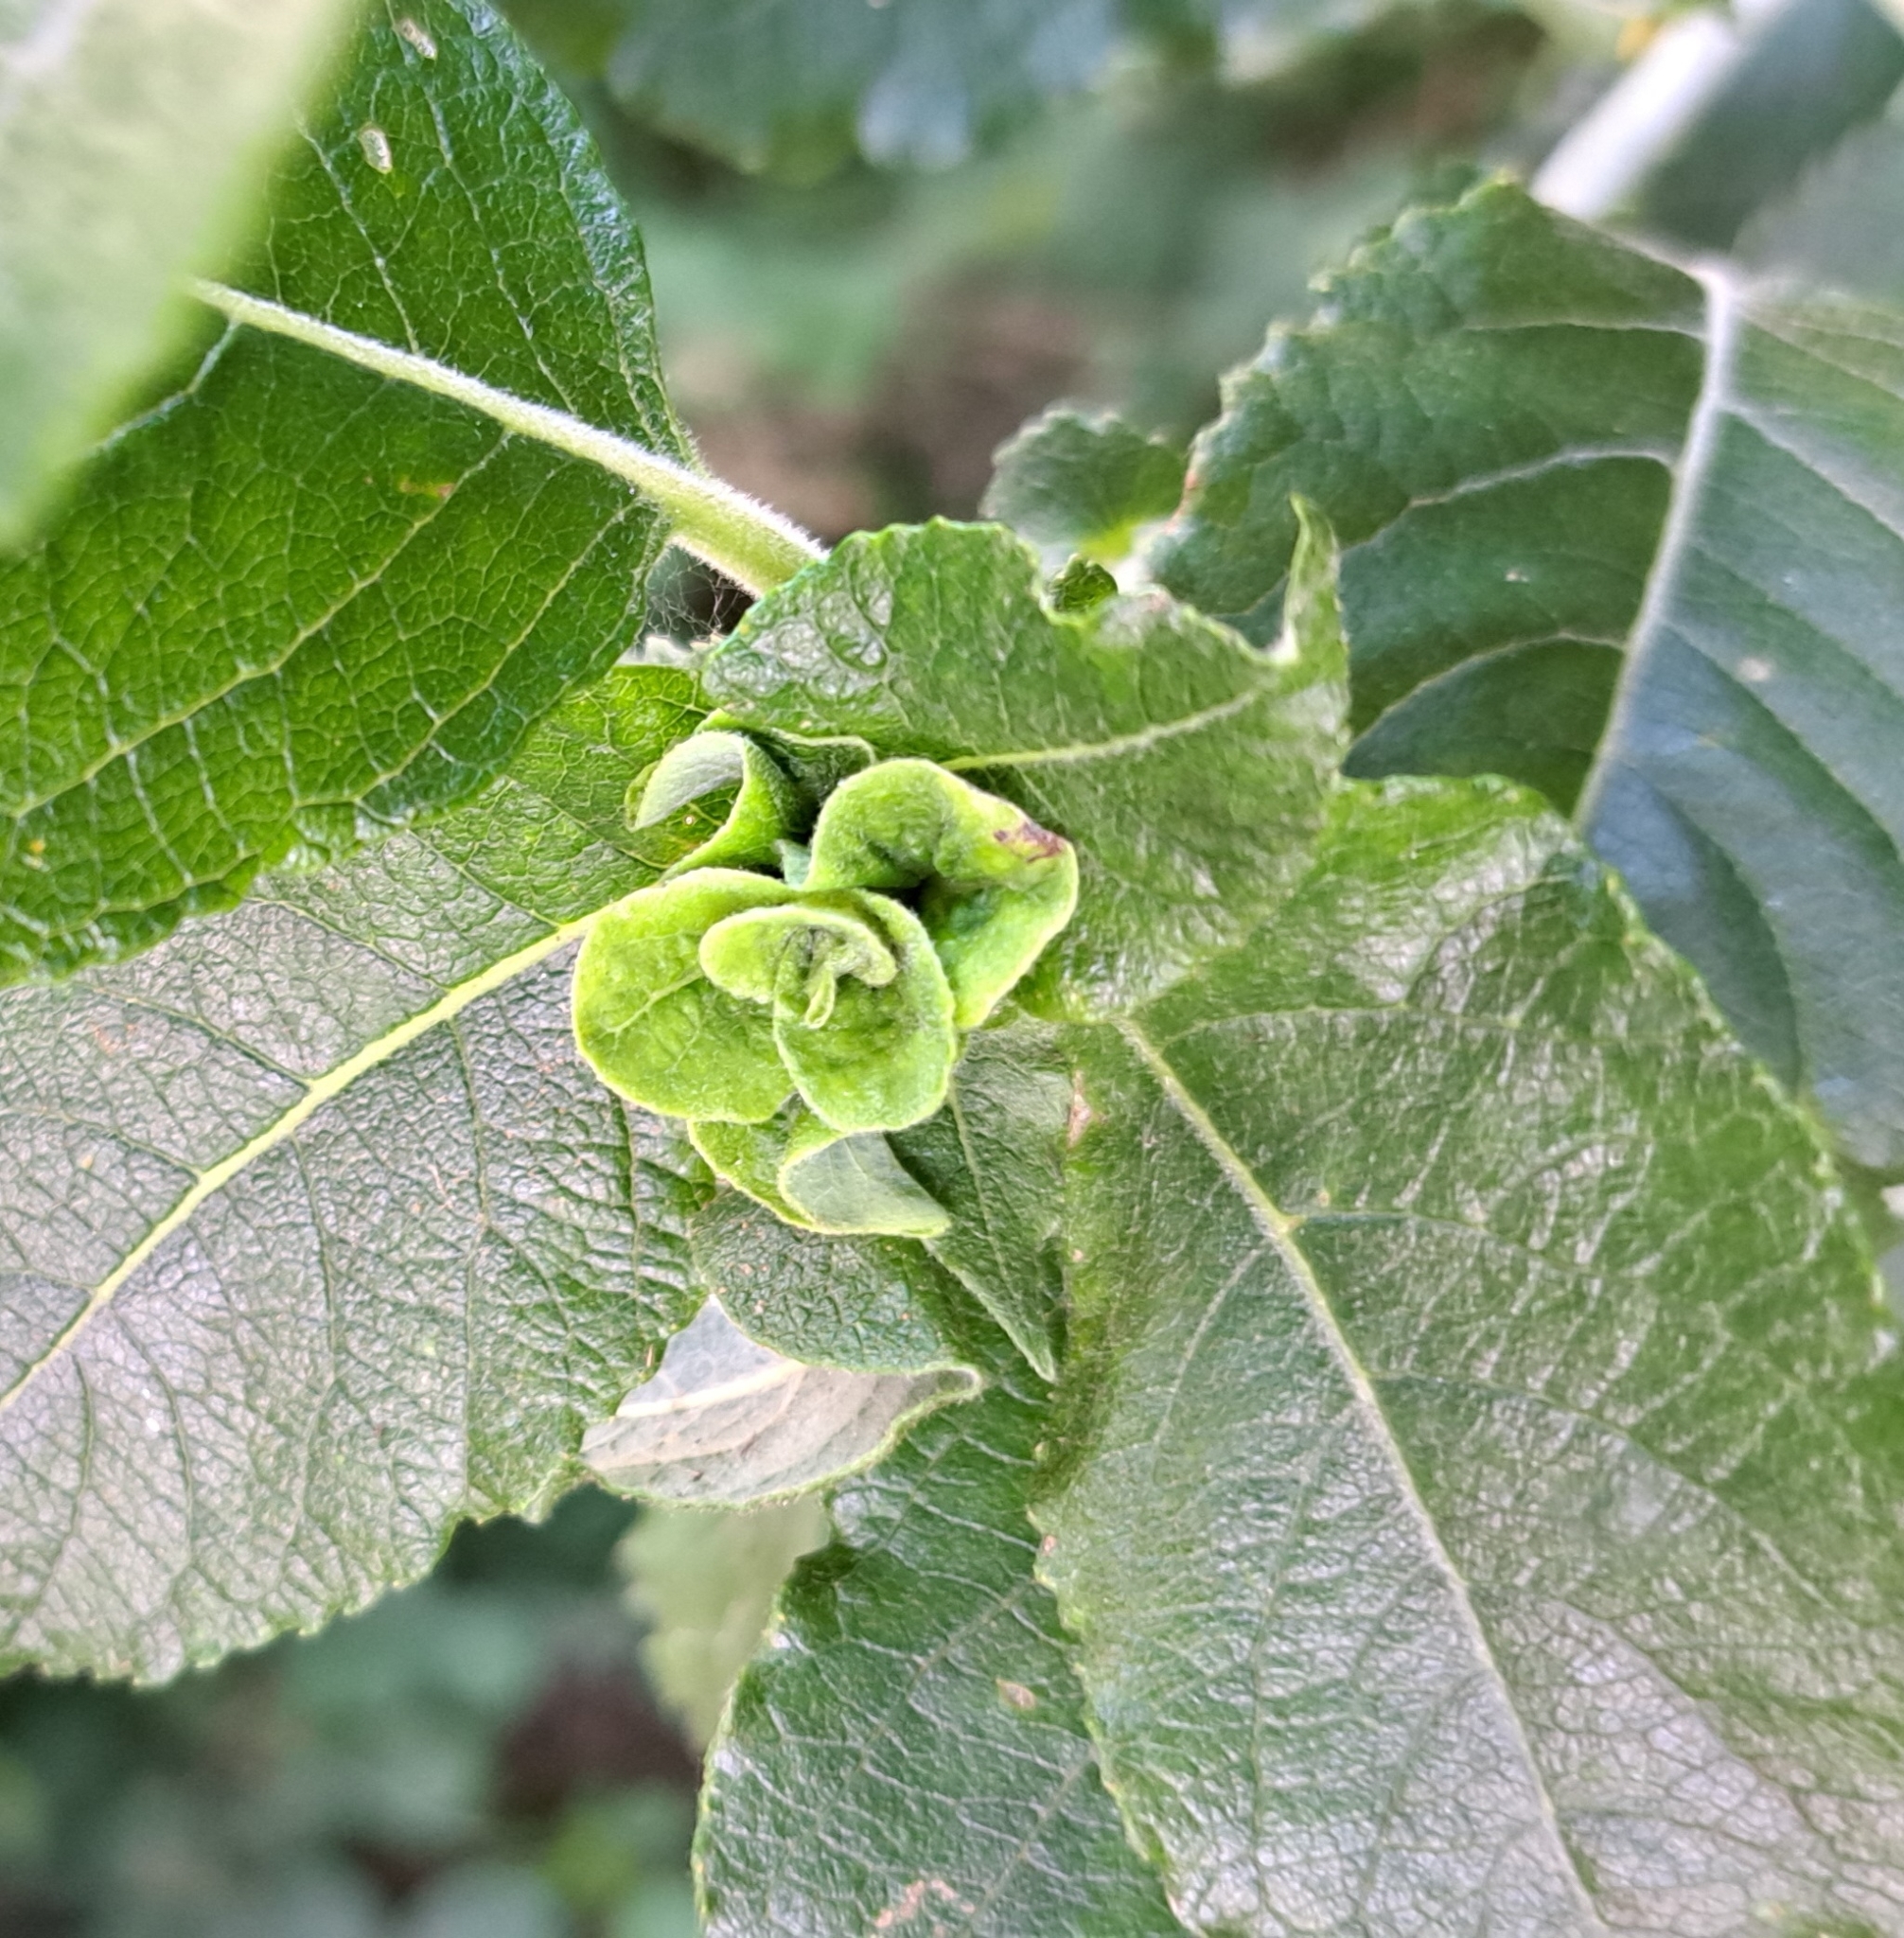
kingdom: Animalia
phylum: Arthropoda
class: Insecta
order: Diptera
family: Cecidomyiidae
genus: Rabdophaga
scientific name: Rabdophaga rosaria
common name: Willow rose gall midge
